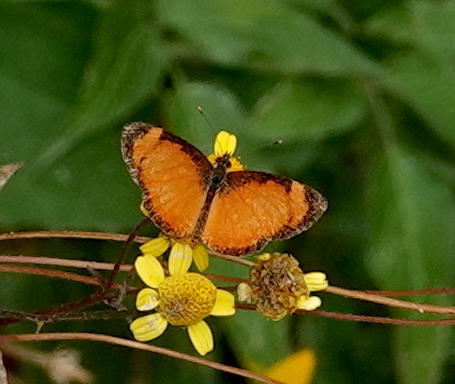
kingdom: Animalia
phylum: Arthropoda
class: Insecta
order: Lepidoptera
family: Nymphalidae
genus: Tegosa
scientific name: Tegosa anieta
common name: Black-bordered crescent
